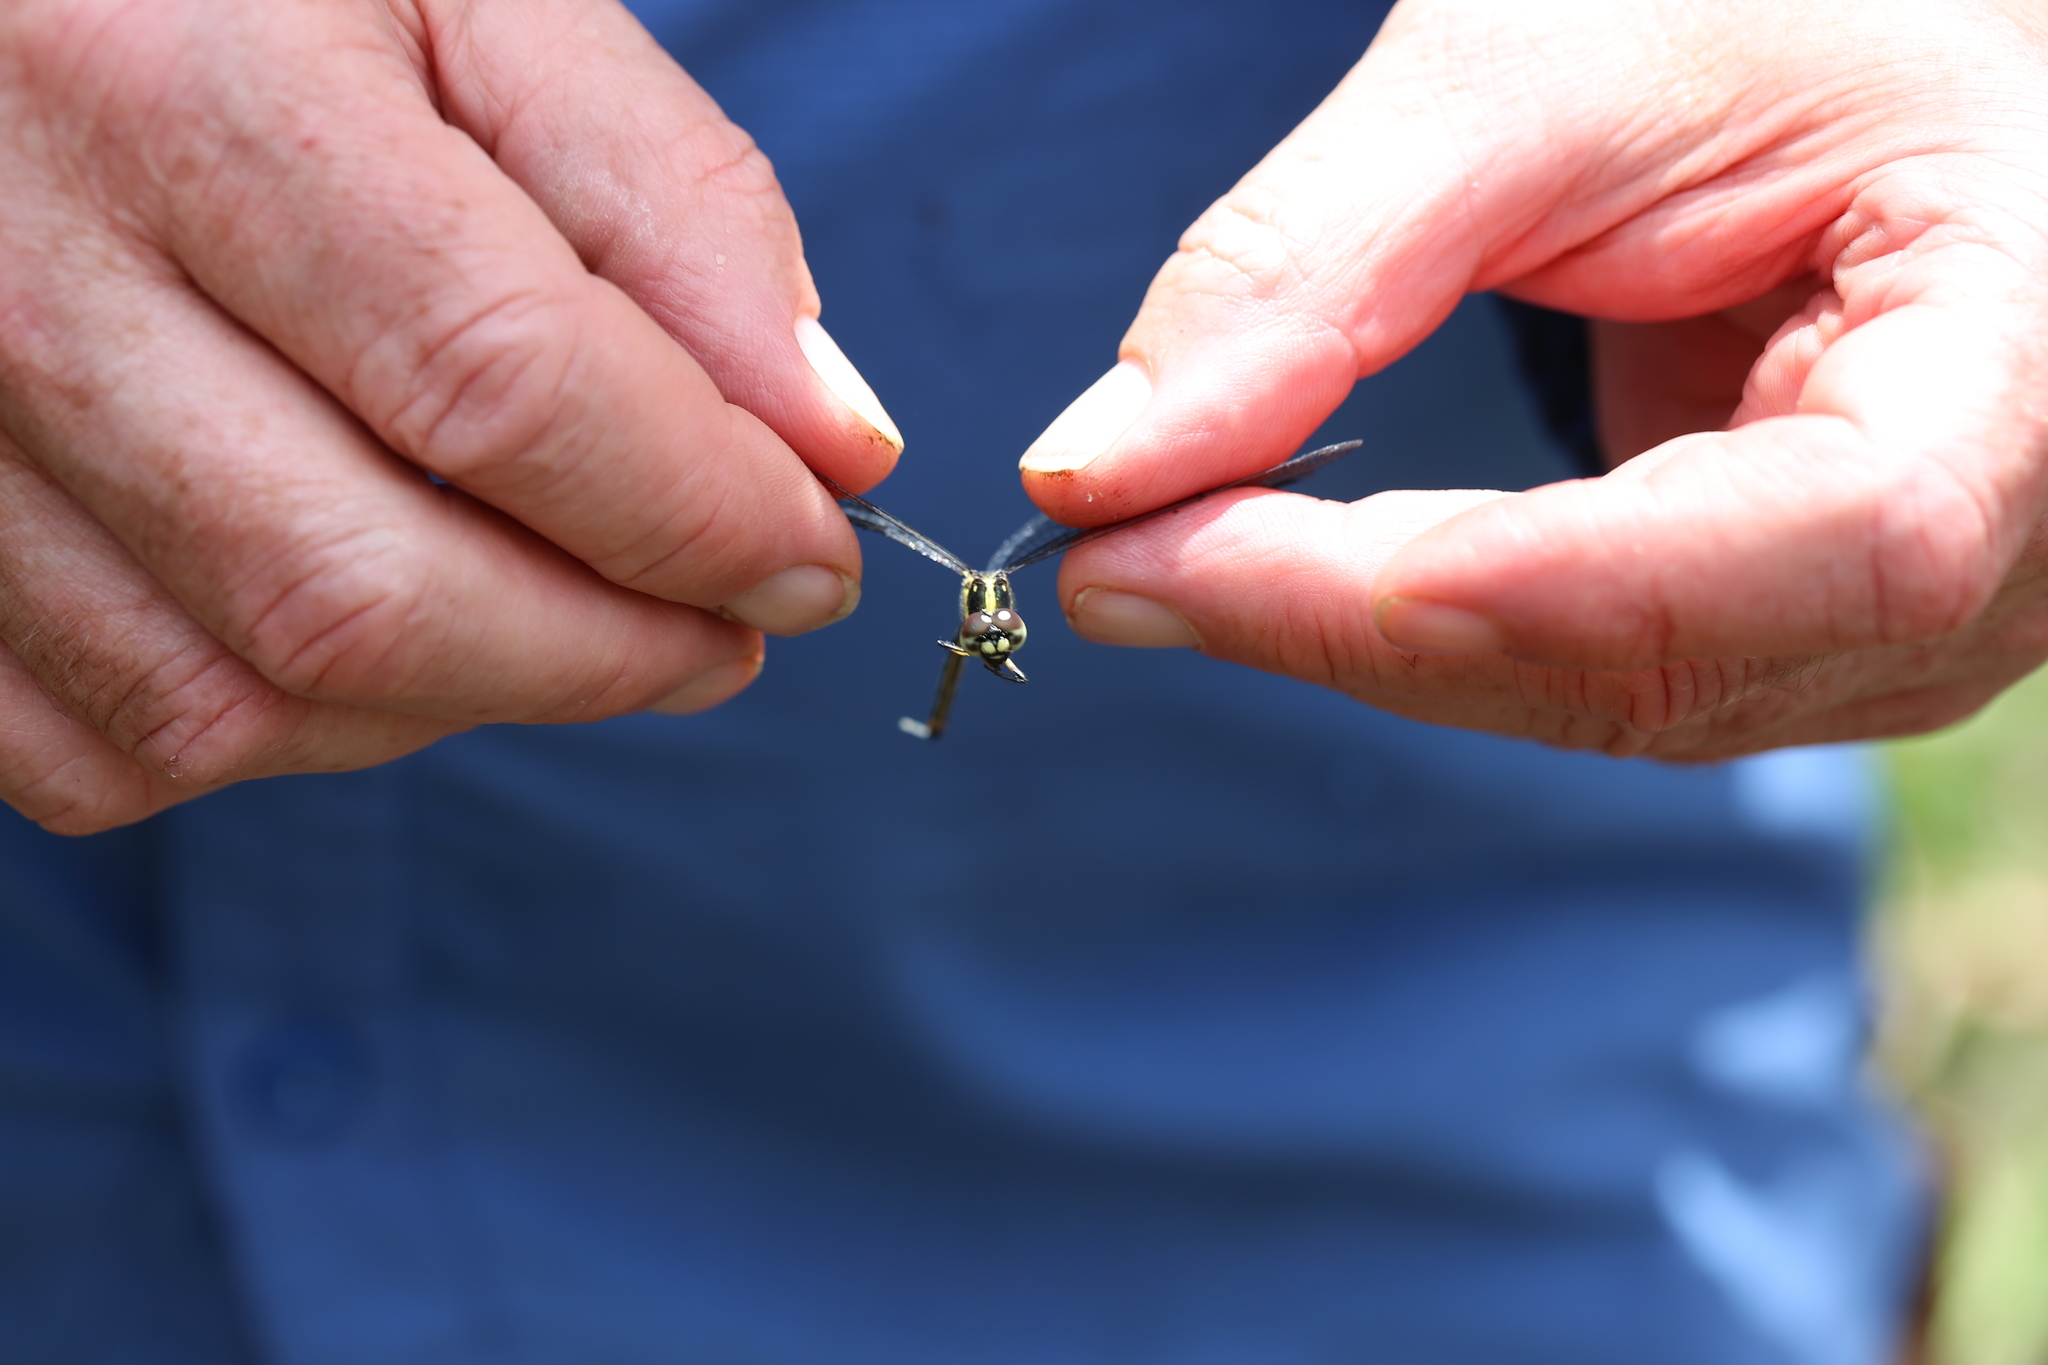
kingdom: Animalia
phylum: Arthropoda
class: Insecta
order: Odonata
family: Synthemistidae
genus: Choristhemis
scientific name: Choristhemis flavoterminata
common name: Yellow-tipped tigertail
